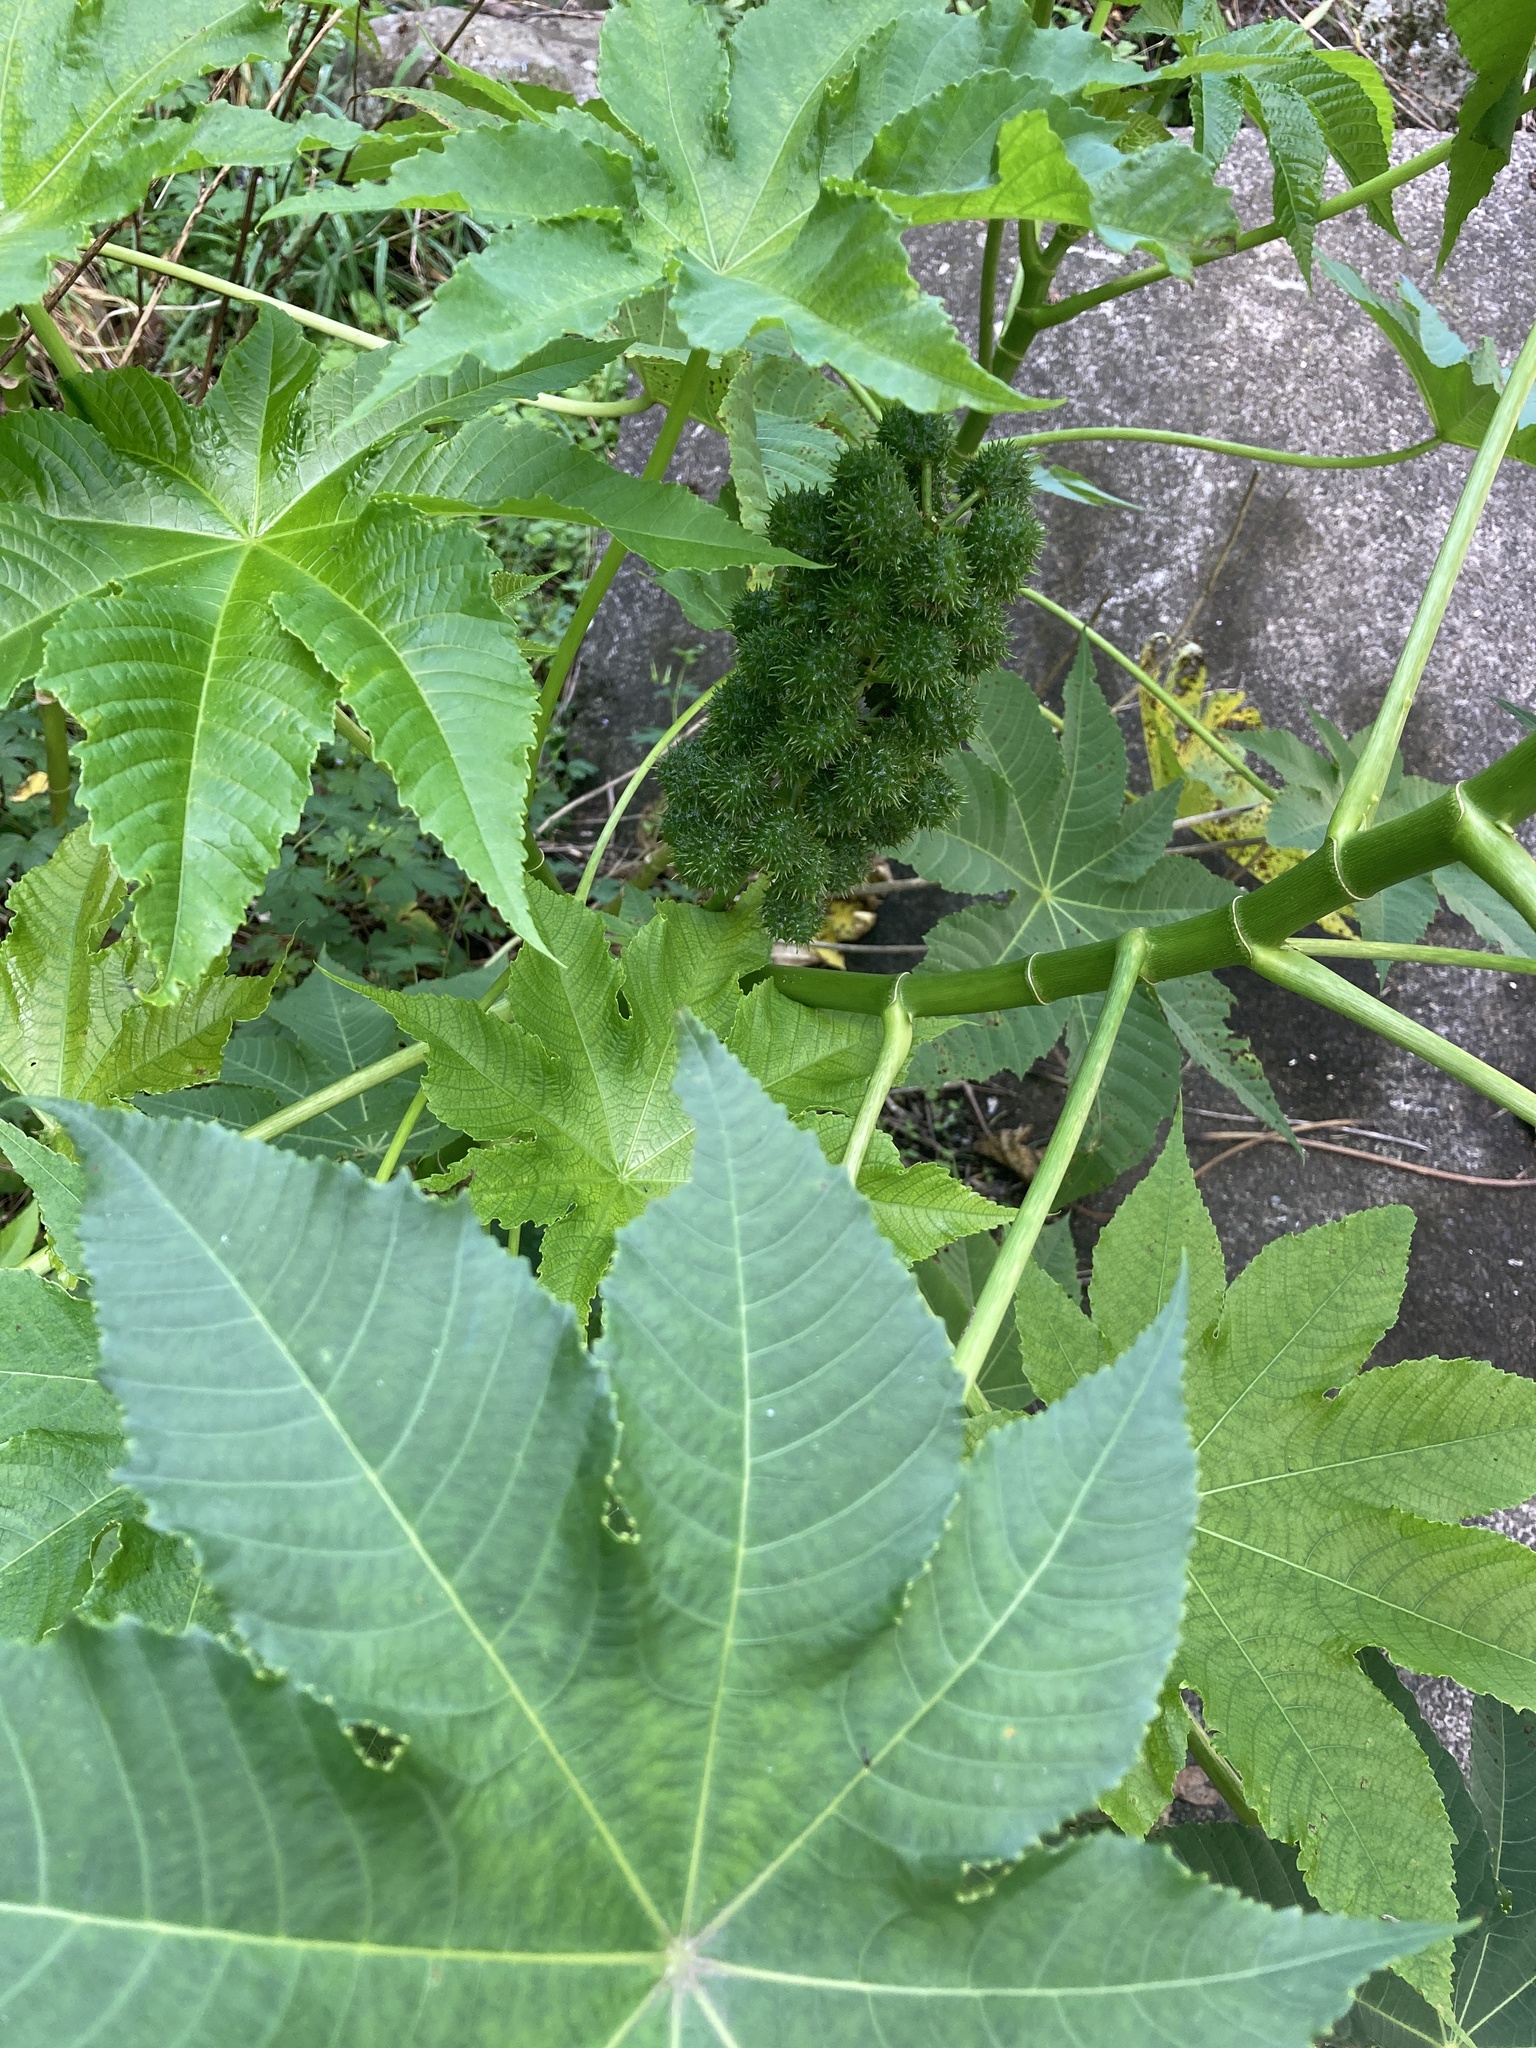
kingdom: Plantae
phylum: Tracheophyta
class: Magnoliopsida
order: Malpighiales
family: Euphorbiaceae
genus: Ricinus
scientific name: Ricinus communis
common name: Castor-oil-plant
